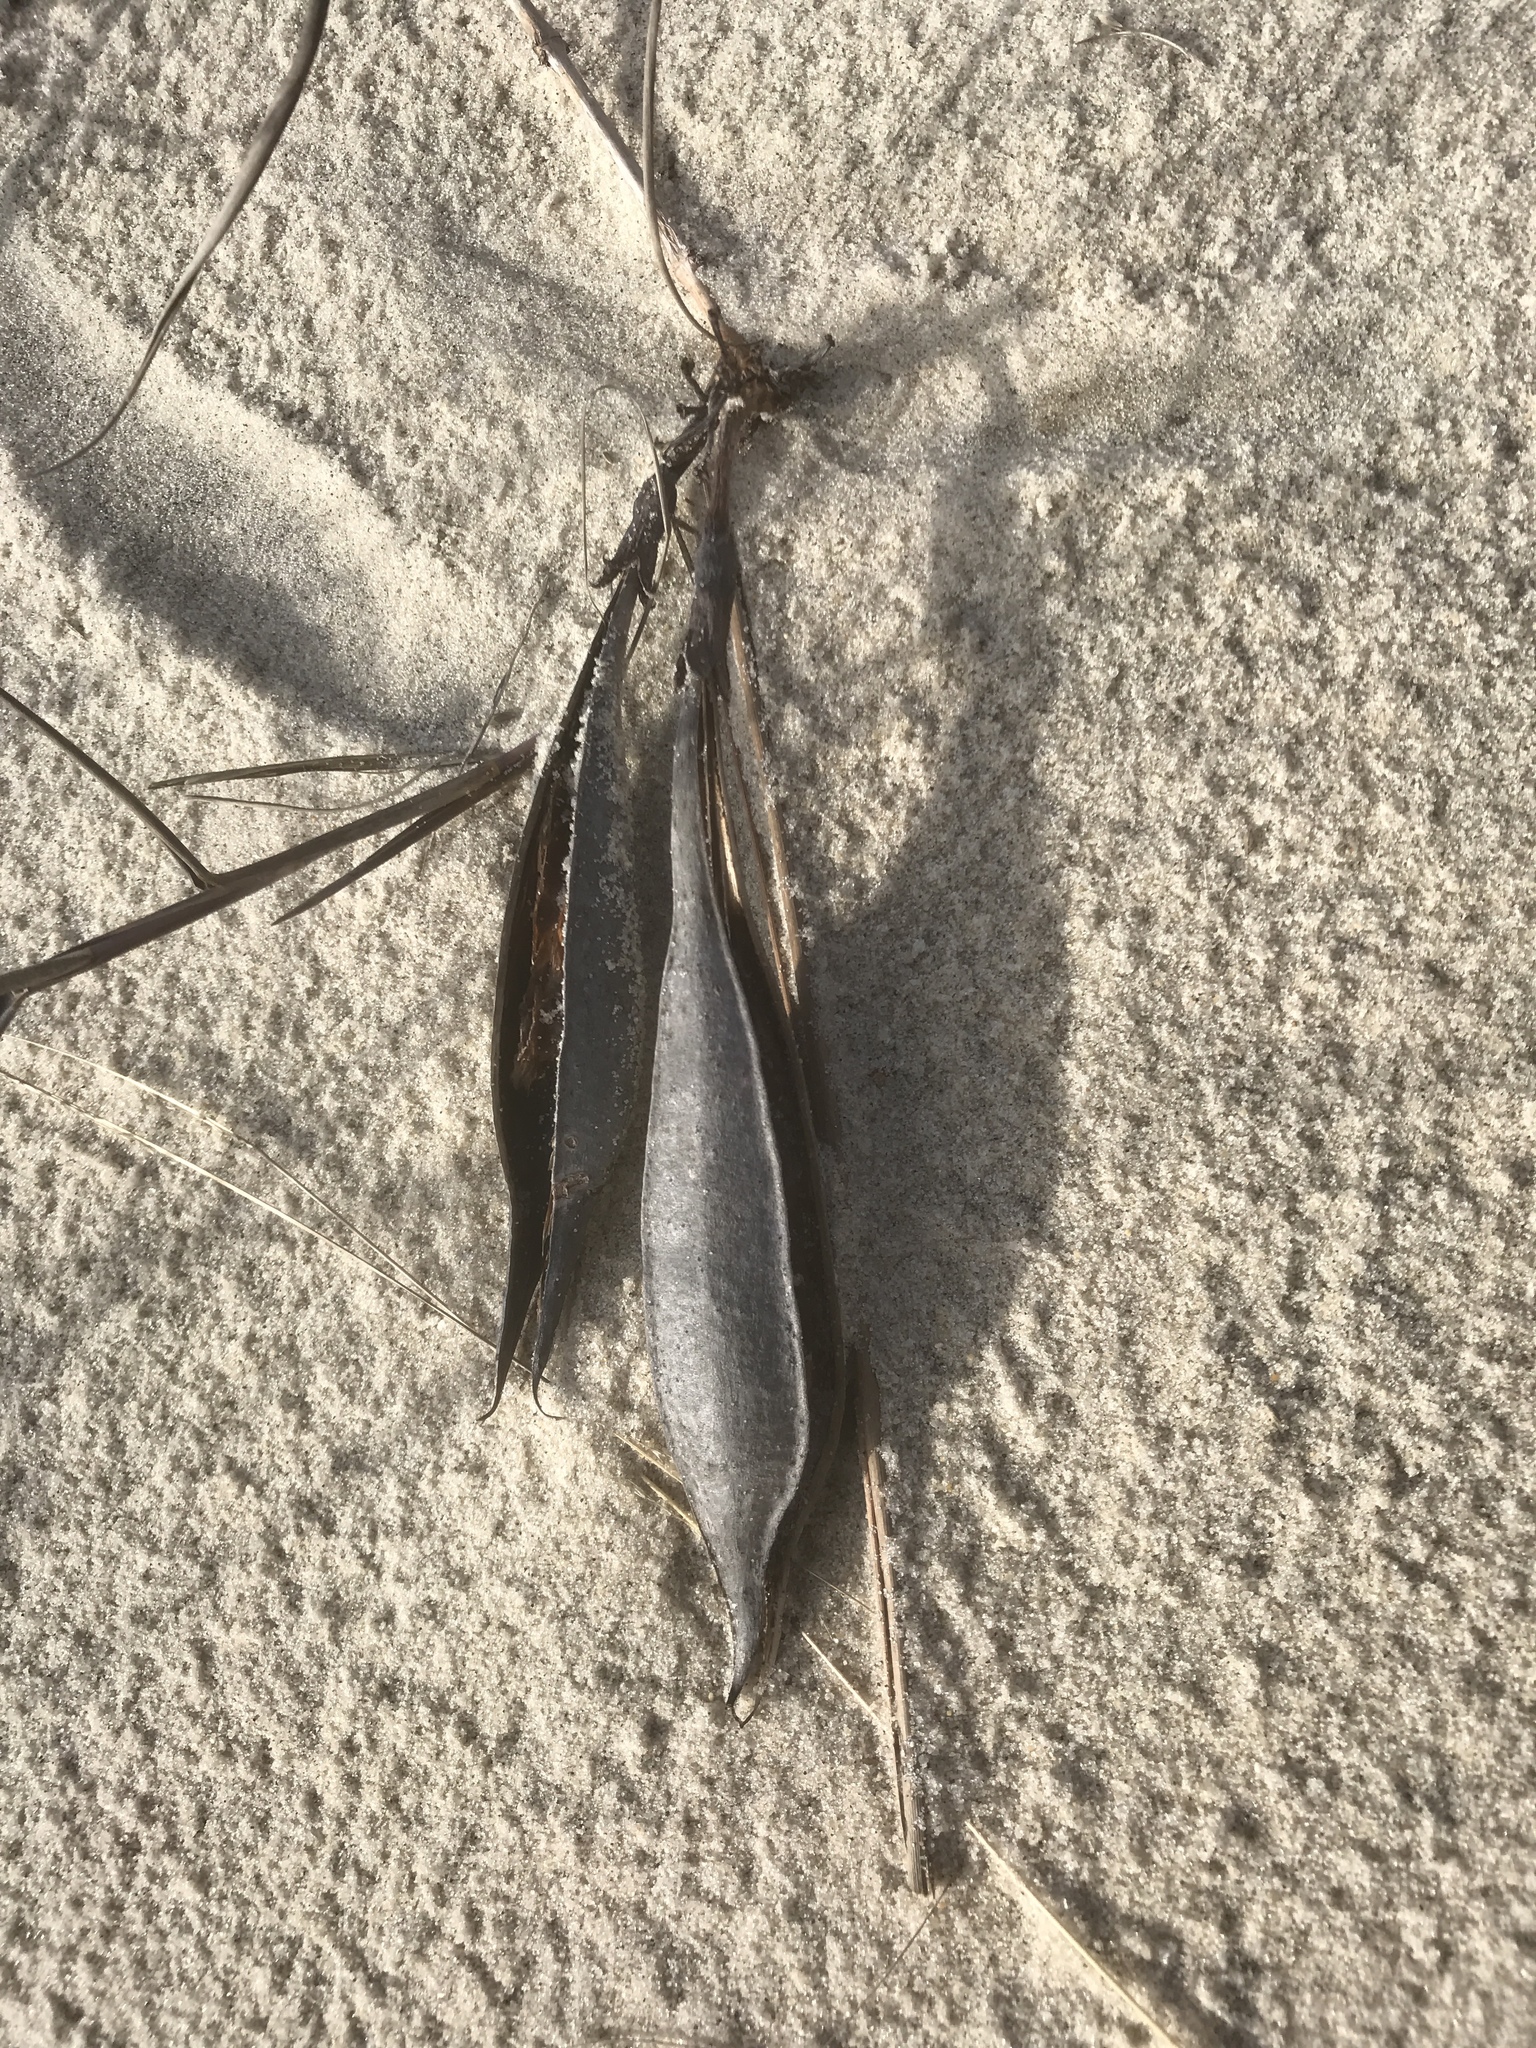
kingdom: Plantae
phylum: Tracheophyta
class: Magnoliopsida
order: Lamiales
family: Bignoniaceae
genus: Campsis
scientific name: Campsis radicans
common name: Trumpet-creeper
